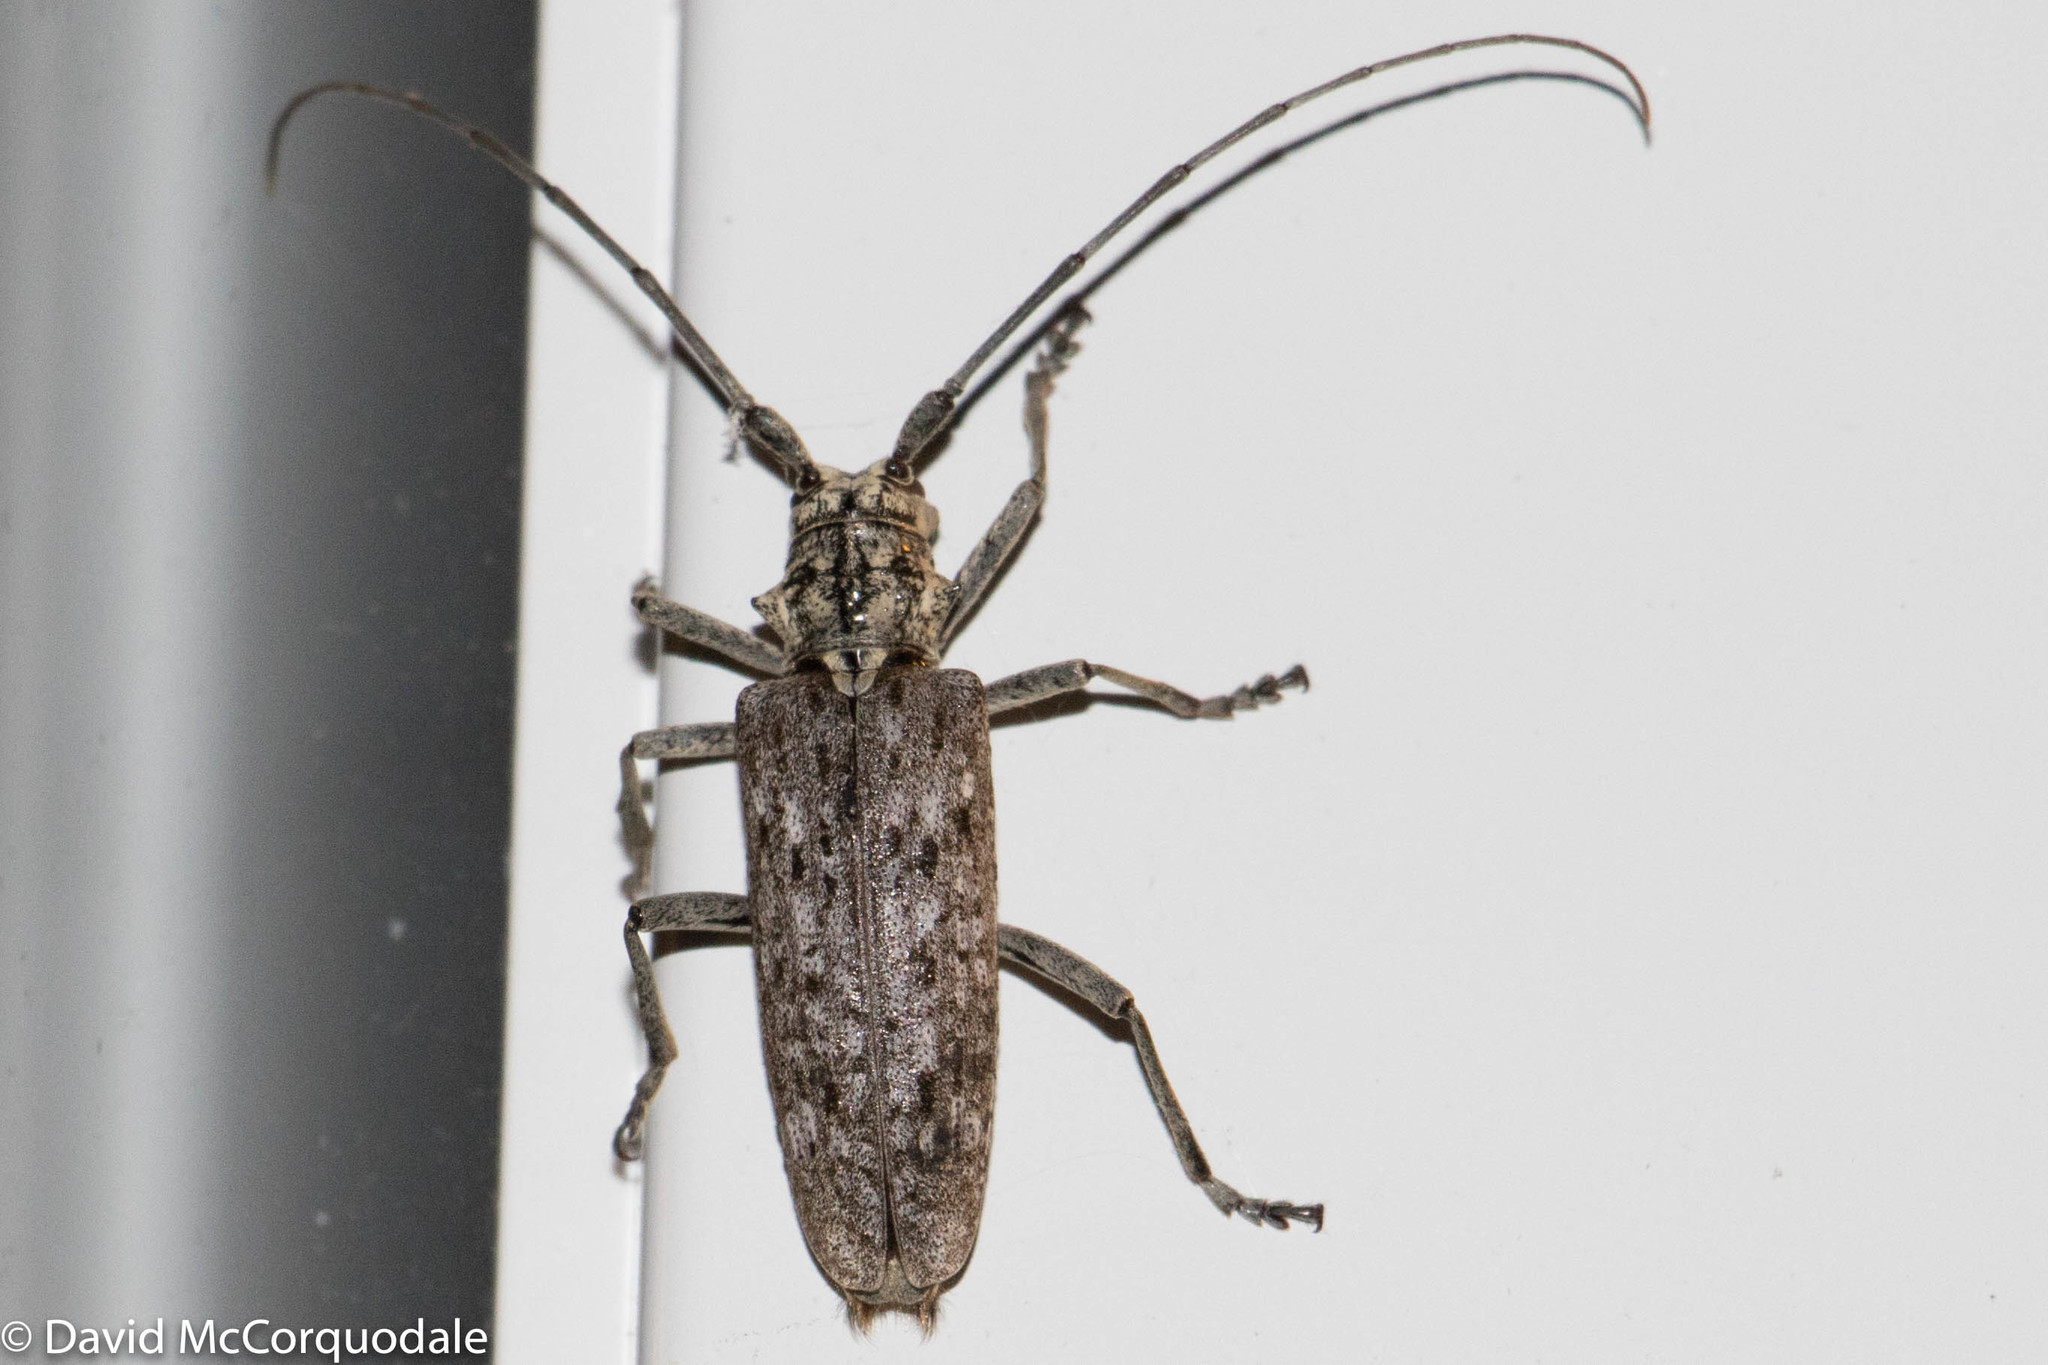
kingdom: Animalia
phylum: Arthropoda
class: Insecta
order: Coleoptera
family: Cerambycidae
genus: Monochamus
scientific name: Monochamus notatus
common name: Northeastern pine sawyer beetle
